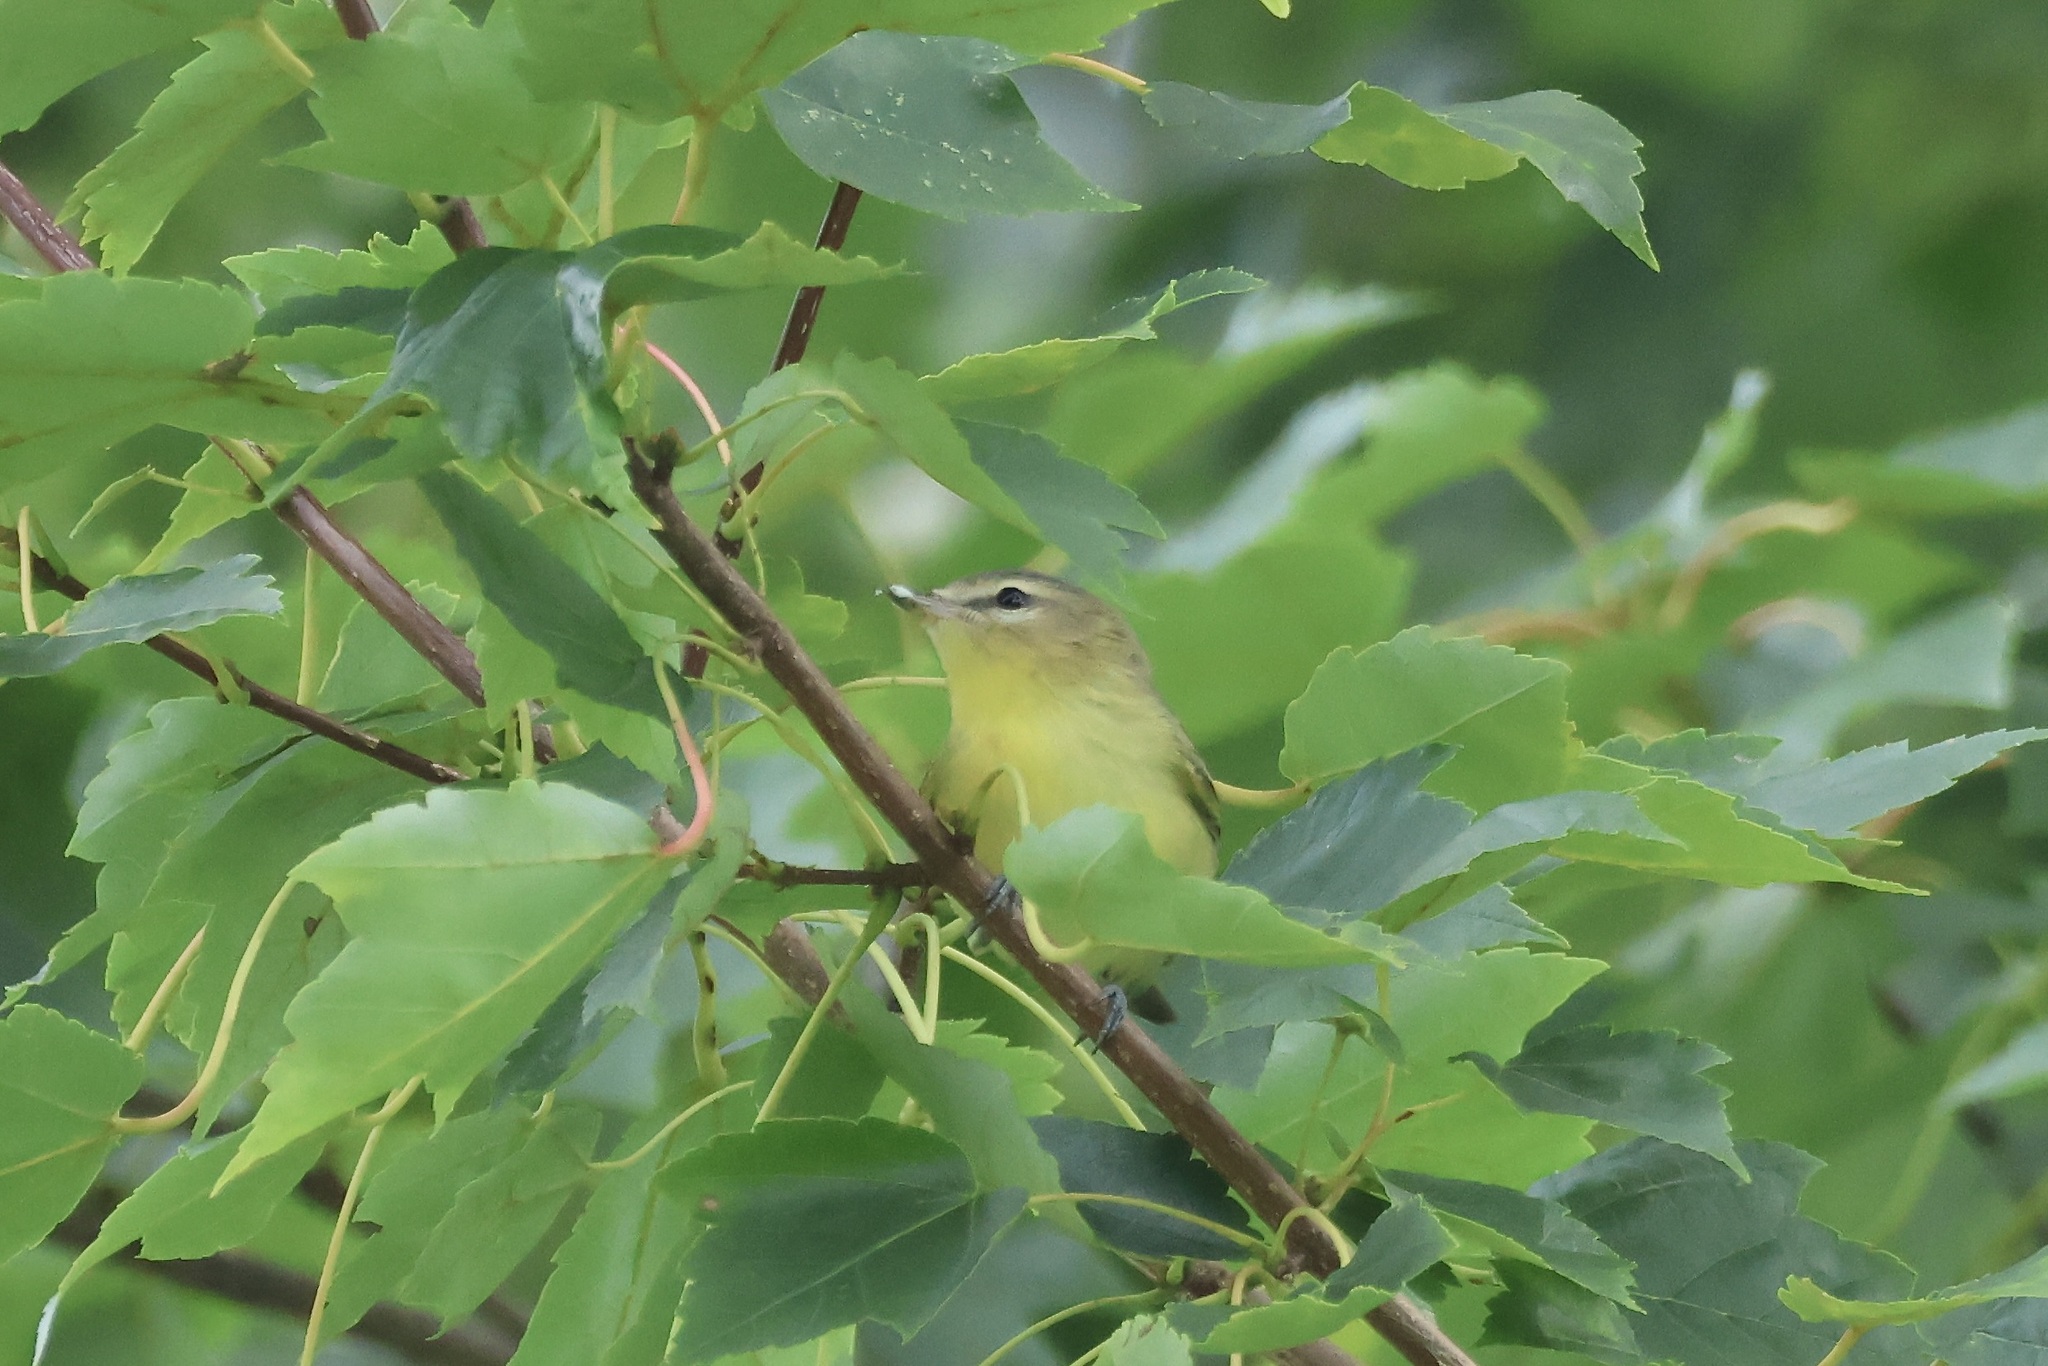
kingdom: Animalia
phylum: Chordata
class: Aves
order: Passeriformes
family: Vireonidae
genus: Vireo
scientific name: Vireo philadelphicus
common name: Philadelphia vireo
